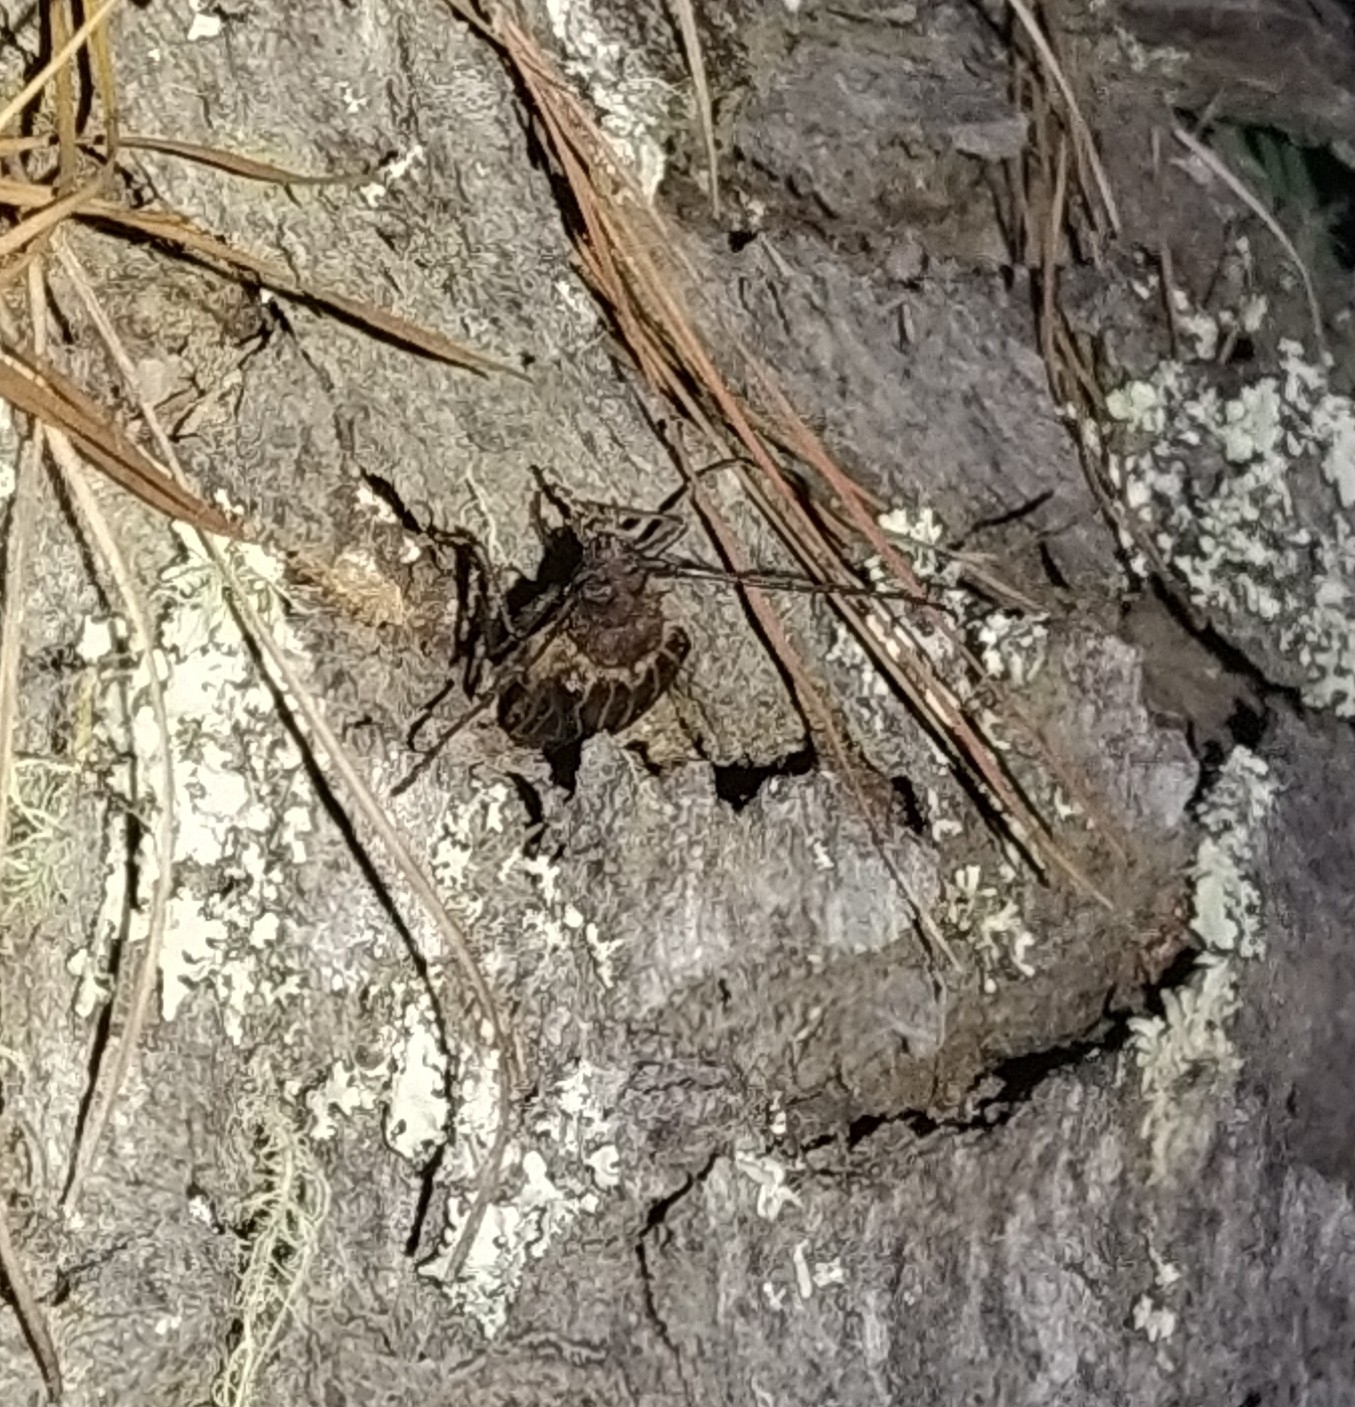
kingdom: Animalia
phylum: Arthropoda
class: Insecta
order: Coleoptera
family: Cerambycidae
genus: Prionoplus
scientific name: Prionoplus reticularis
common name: Huhu beetle
